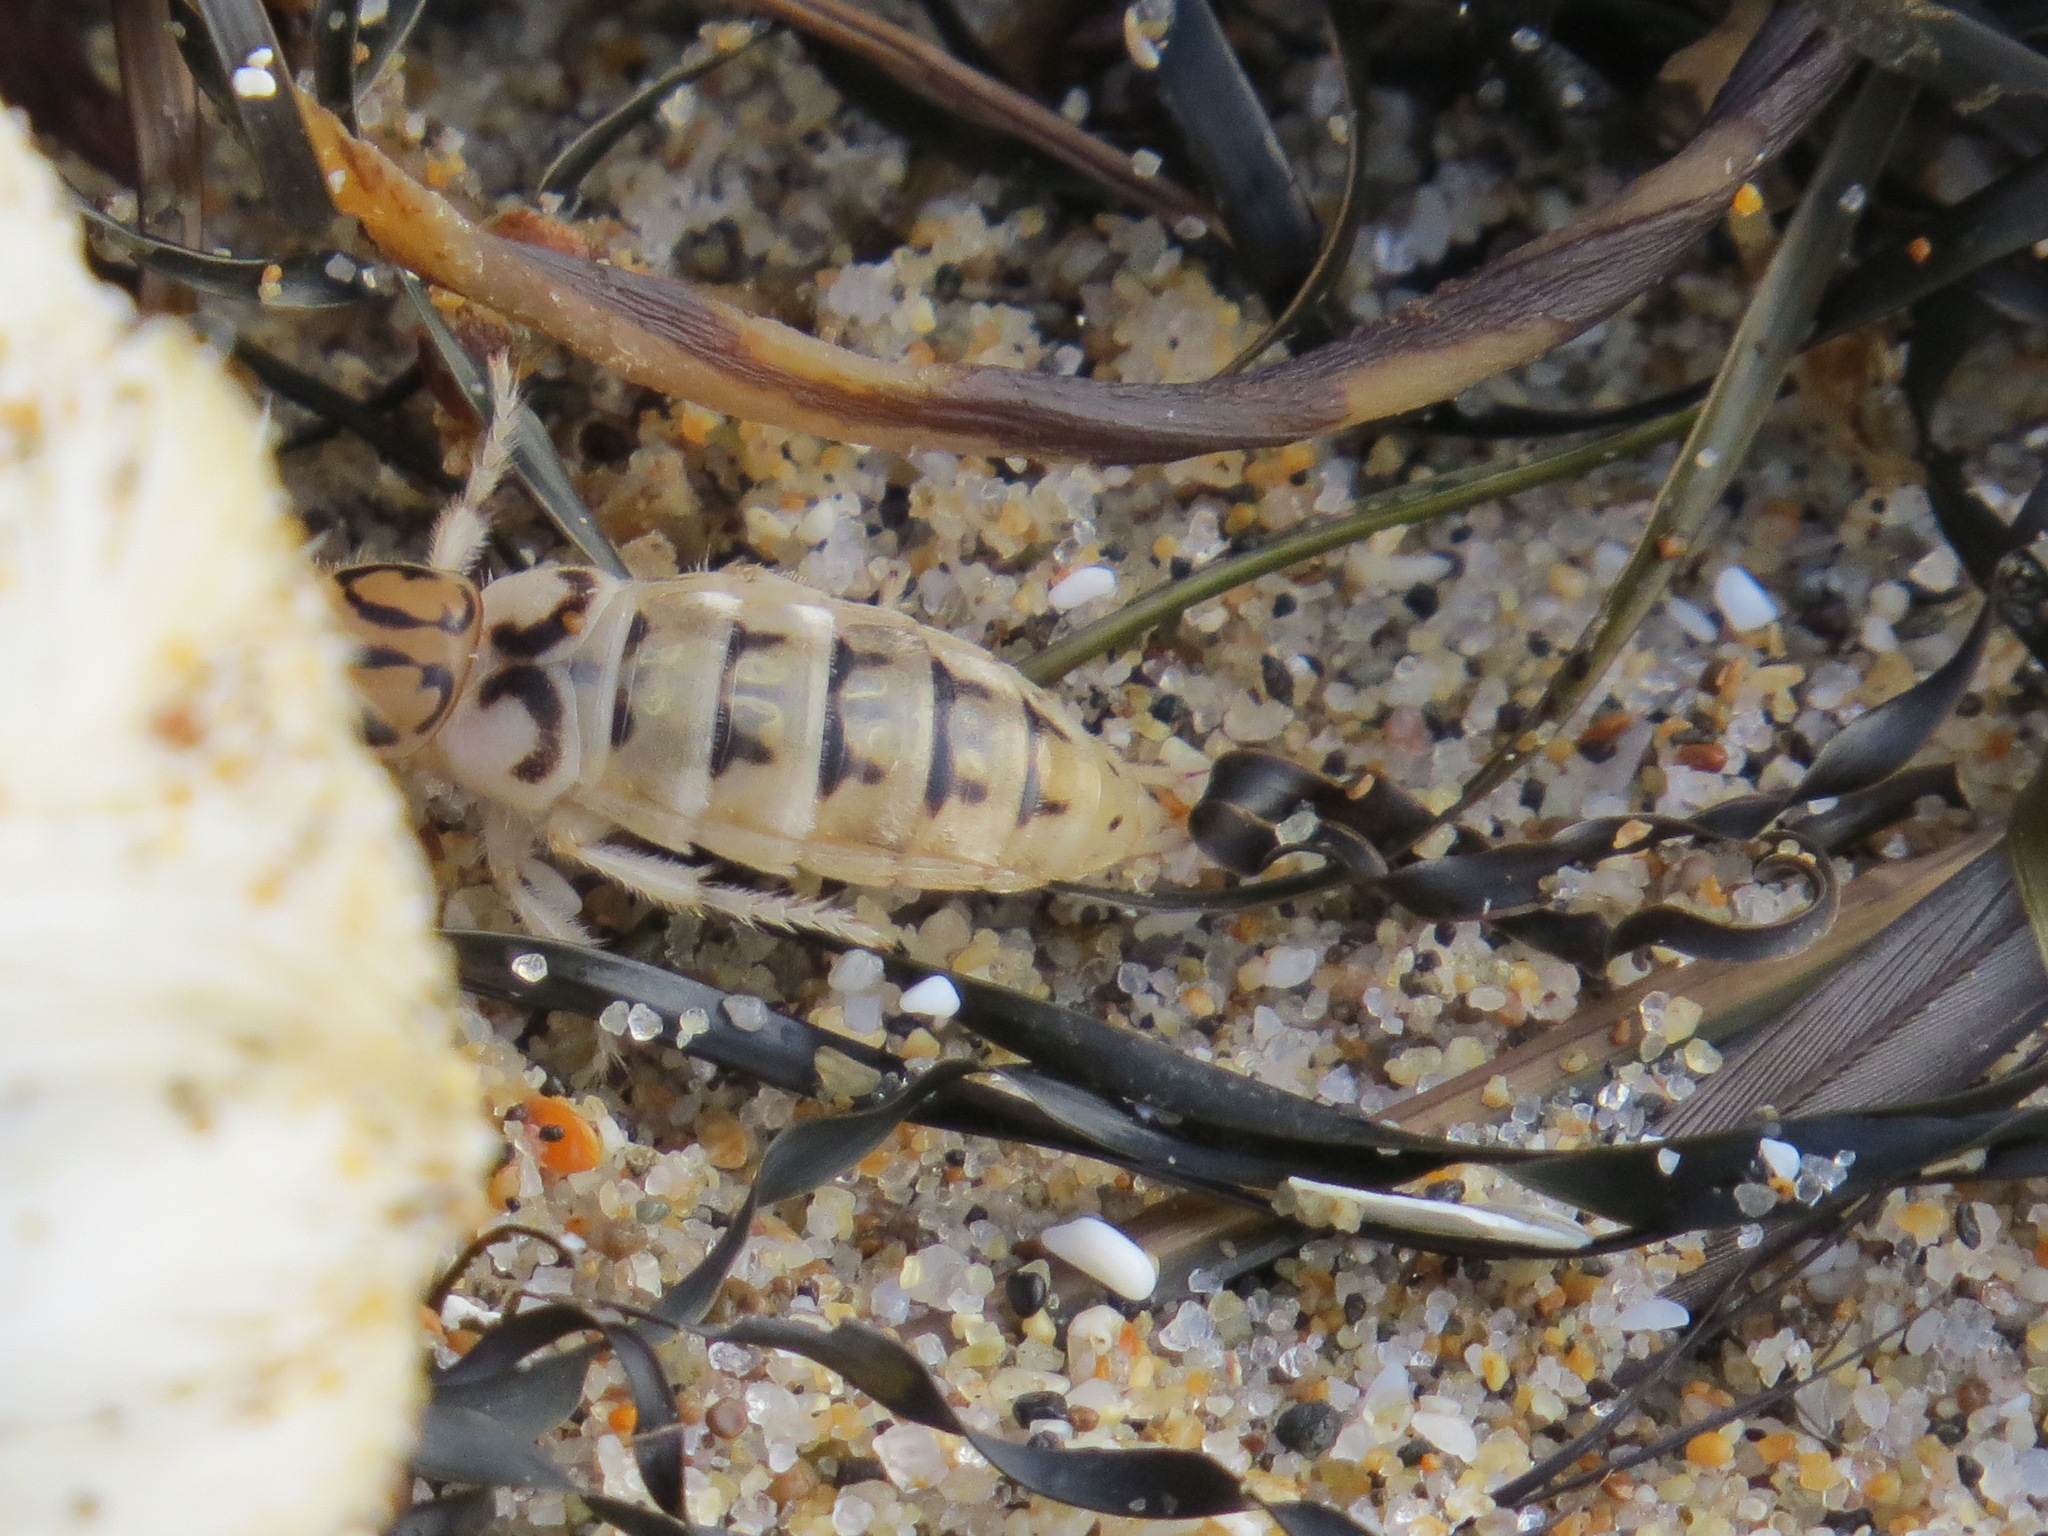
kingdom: Animalia
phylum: Arthropoda
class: Insecta
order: Coleoptera
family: Staphylinidae
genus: Thinopinus
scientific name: Thinopinus pictus
